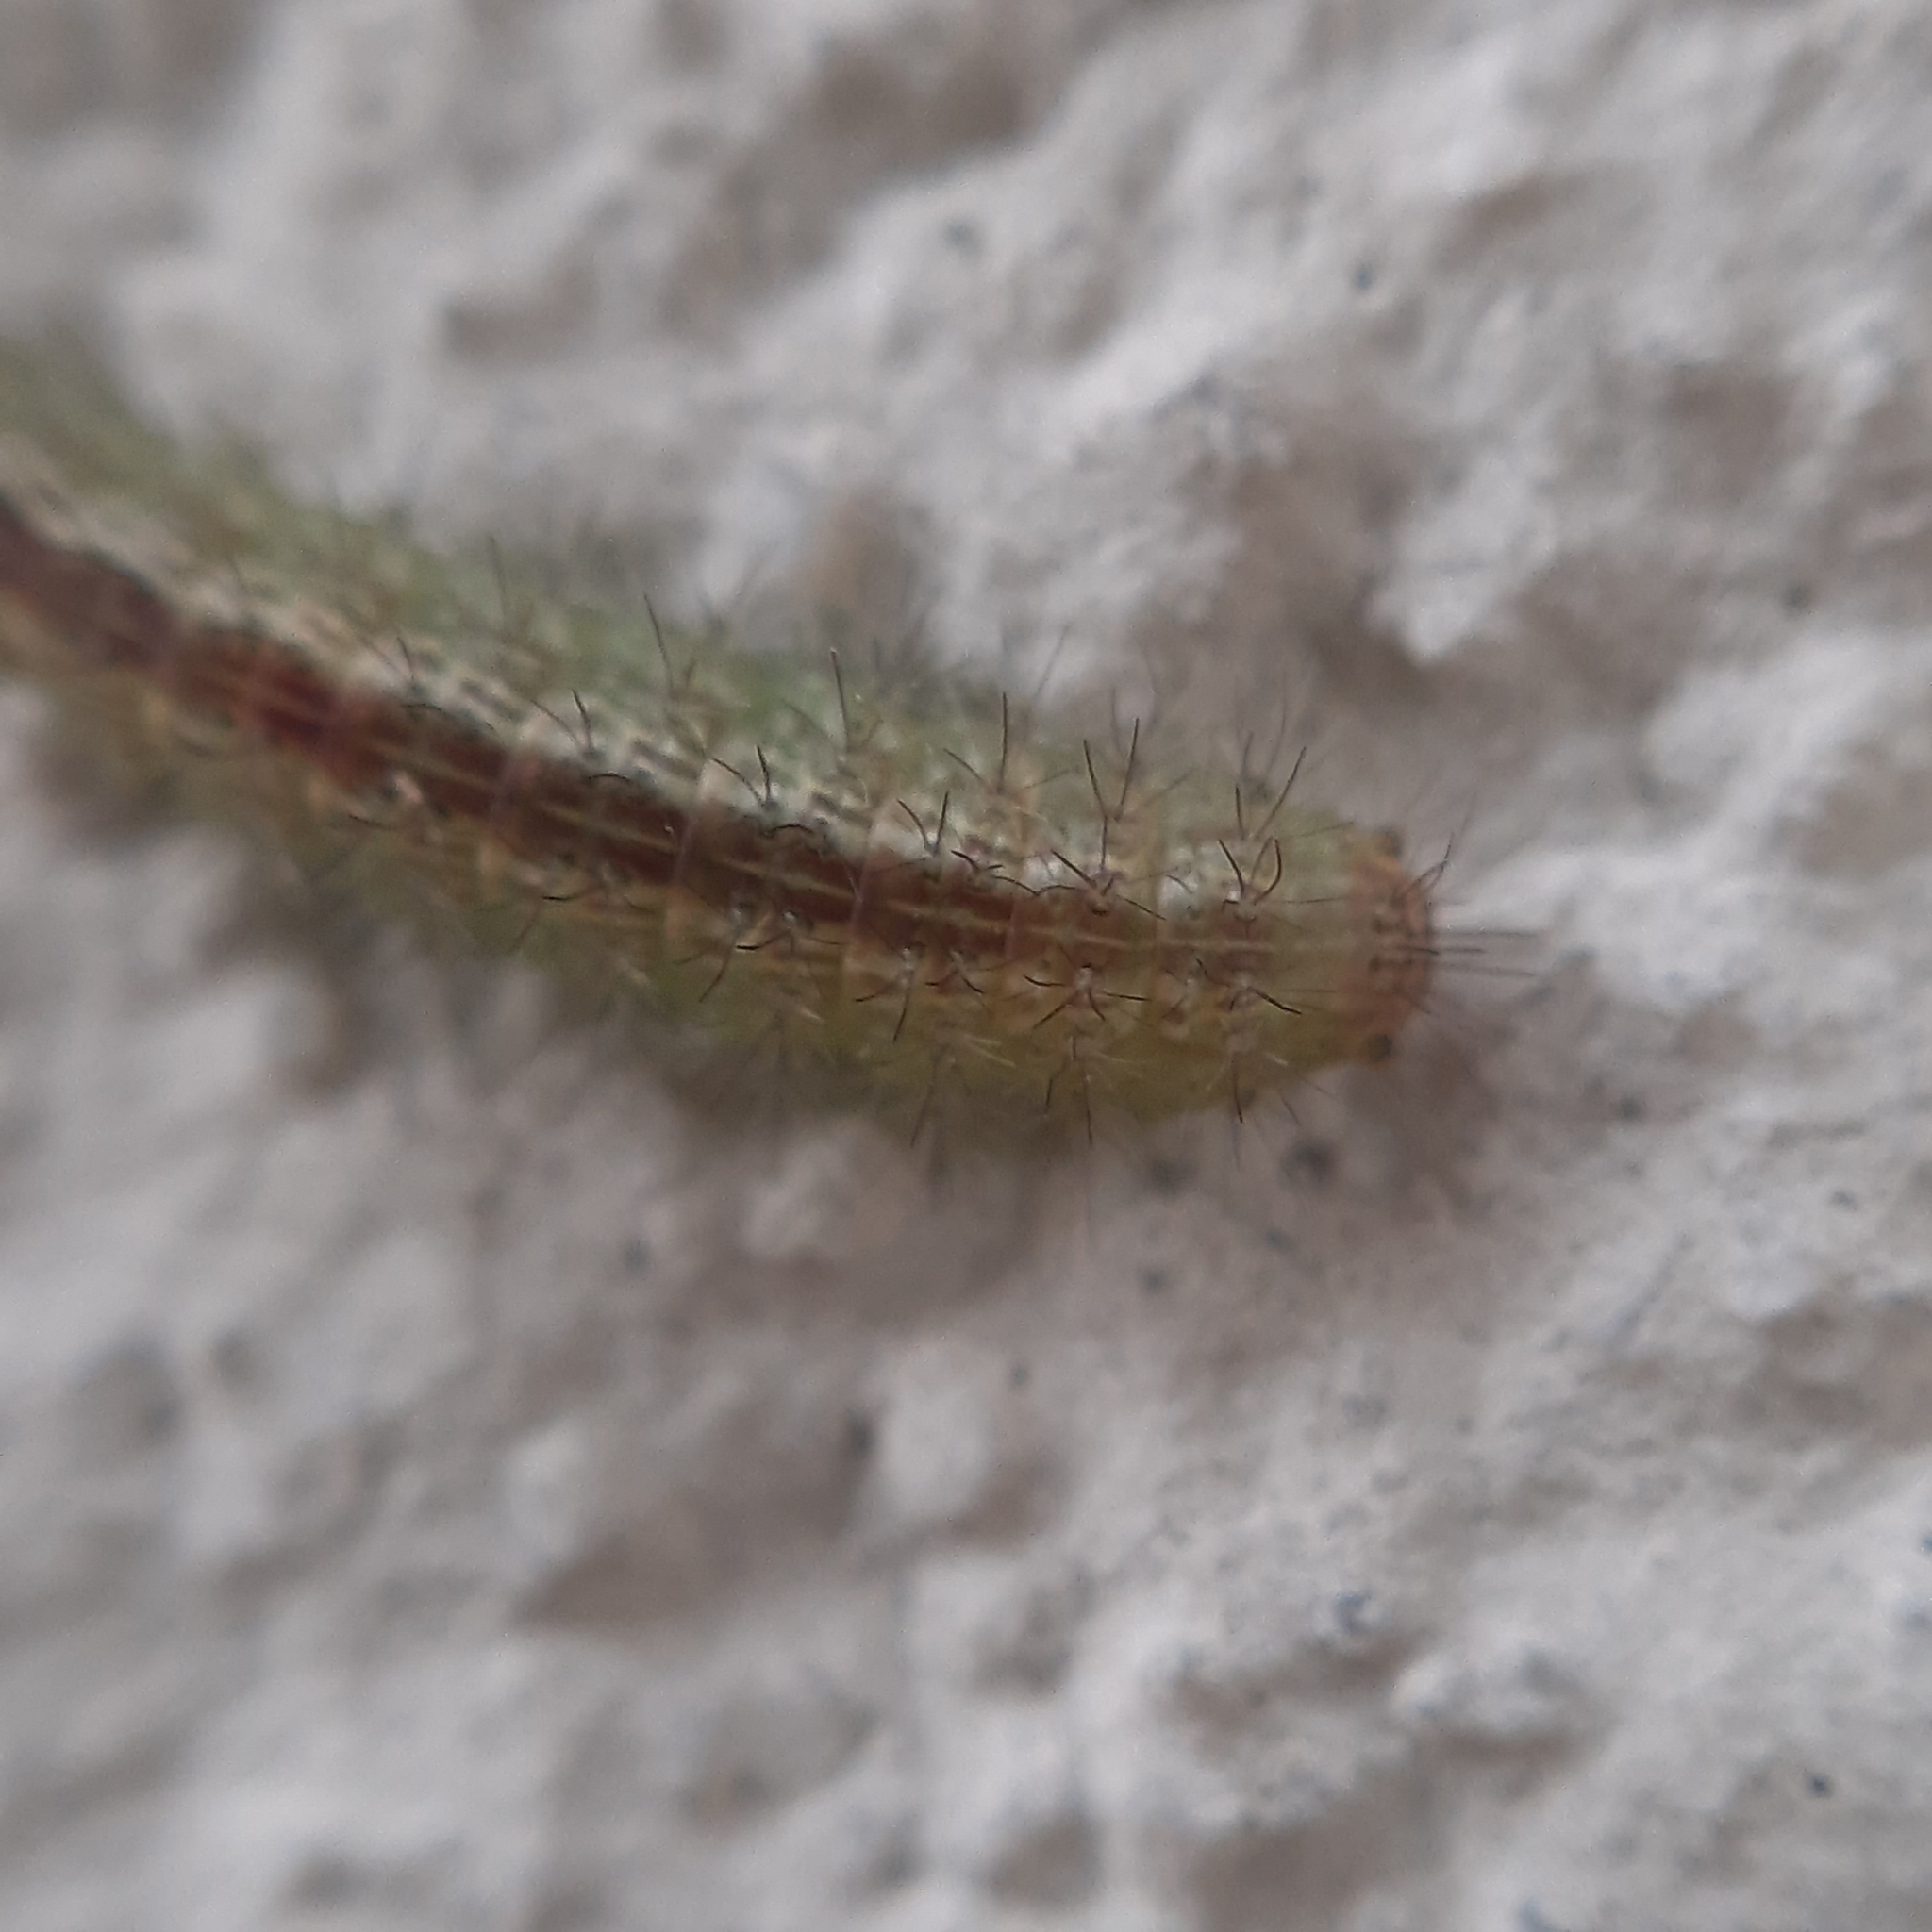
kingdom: Animalia
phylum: Arthropoda
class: Insecta
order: Lepidoptera
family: Pterophoridae
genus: Emmelina
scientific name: Emmelina
